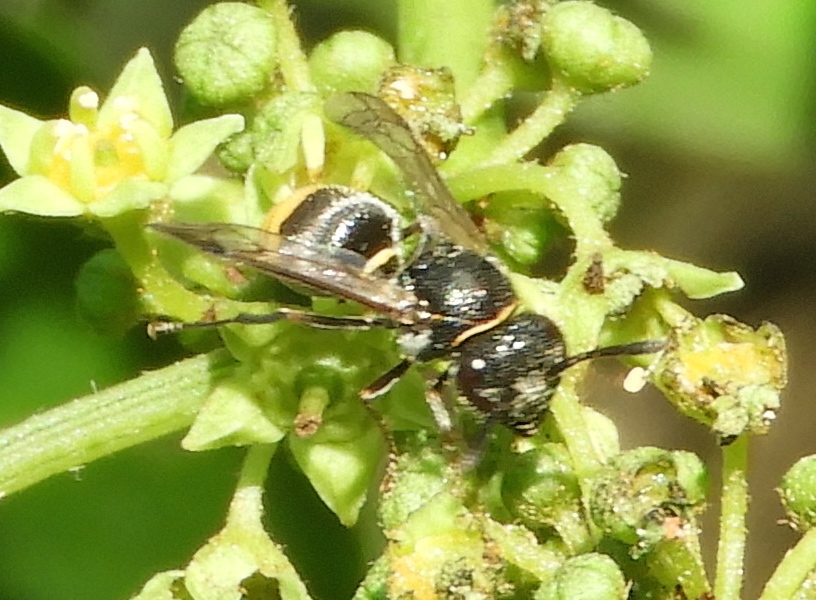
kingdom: Animalia
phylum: Arthropoda
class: Insecta
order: Hymenoptera
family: Vespidae
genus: Brachygastra
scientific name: Brachygastra azteca
